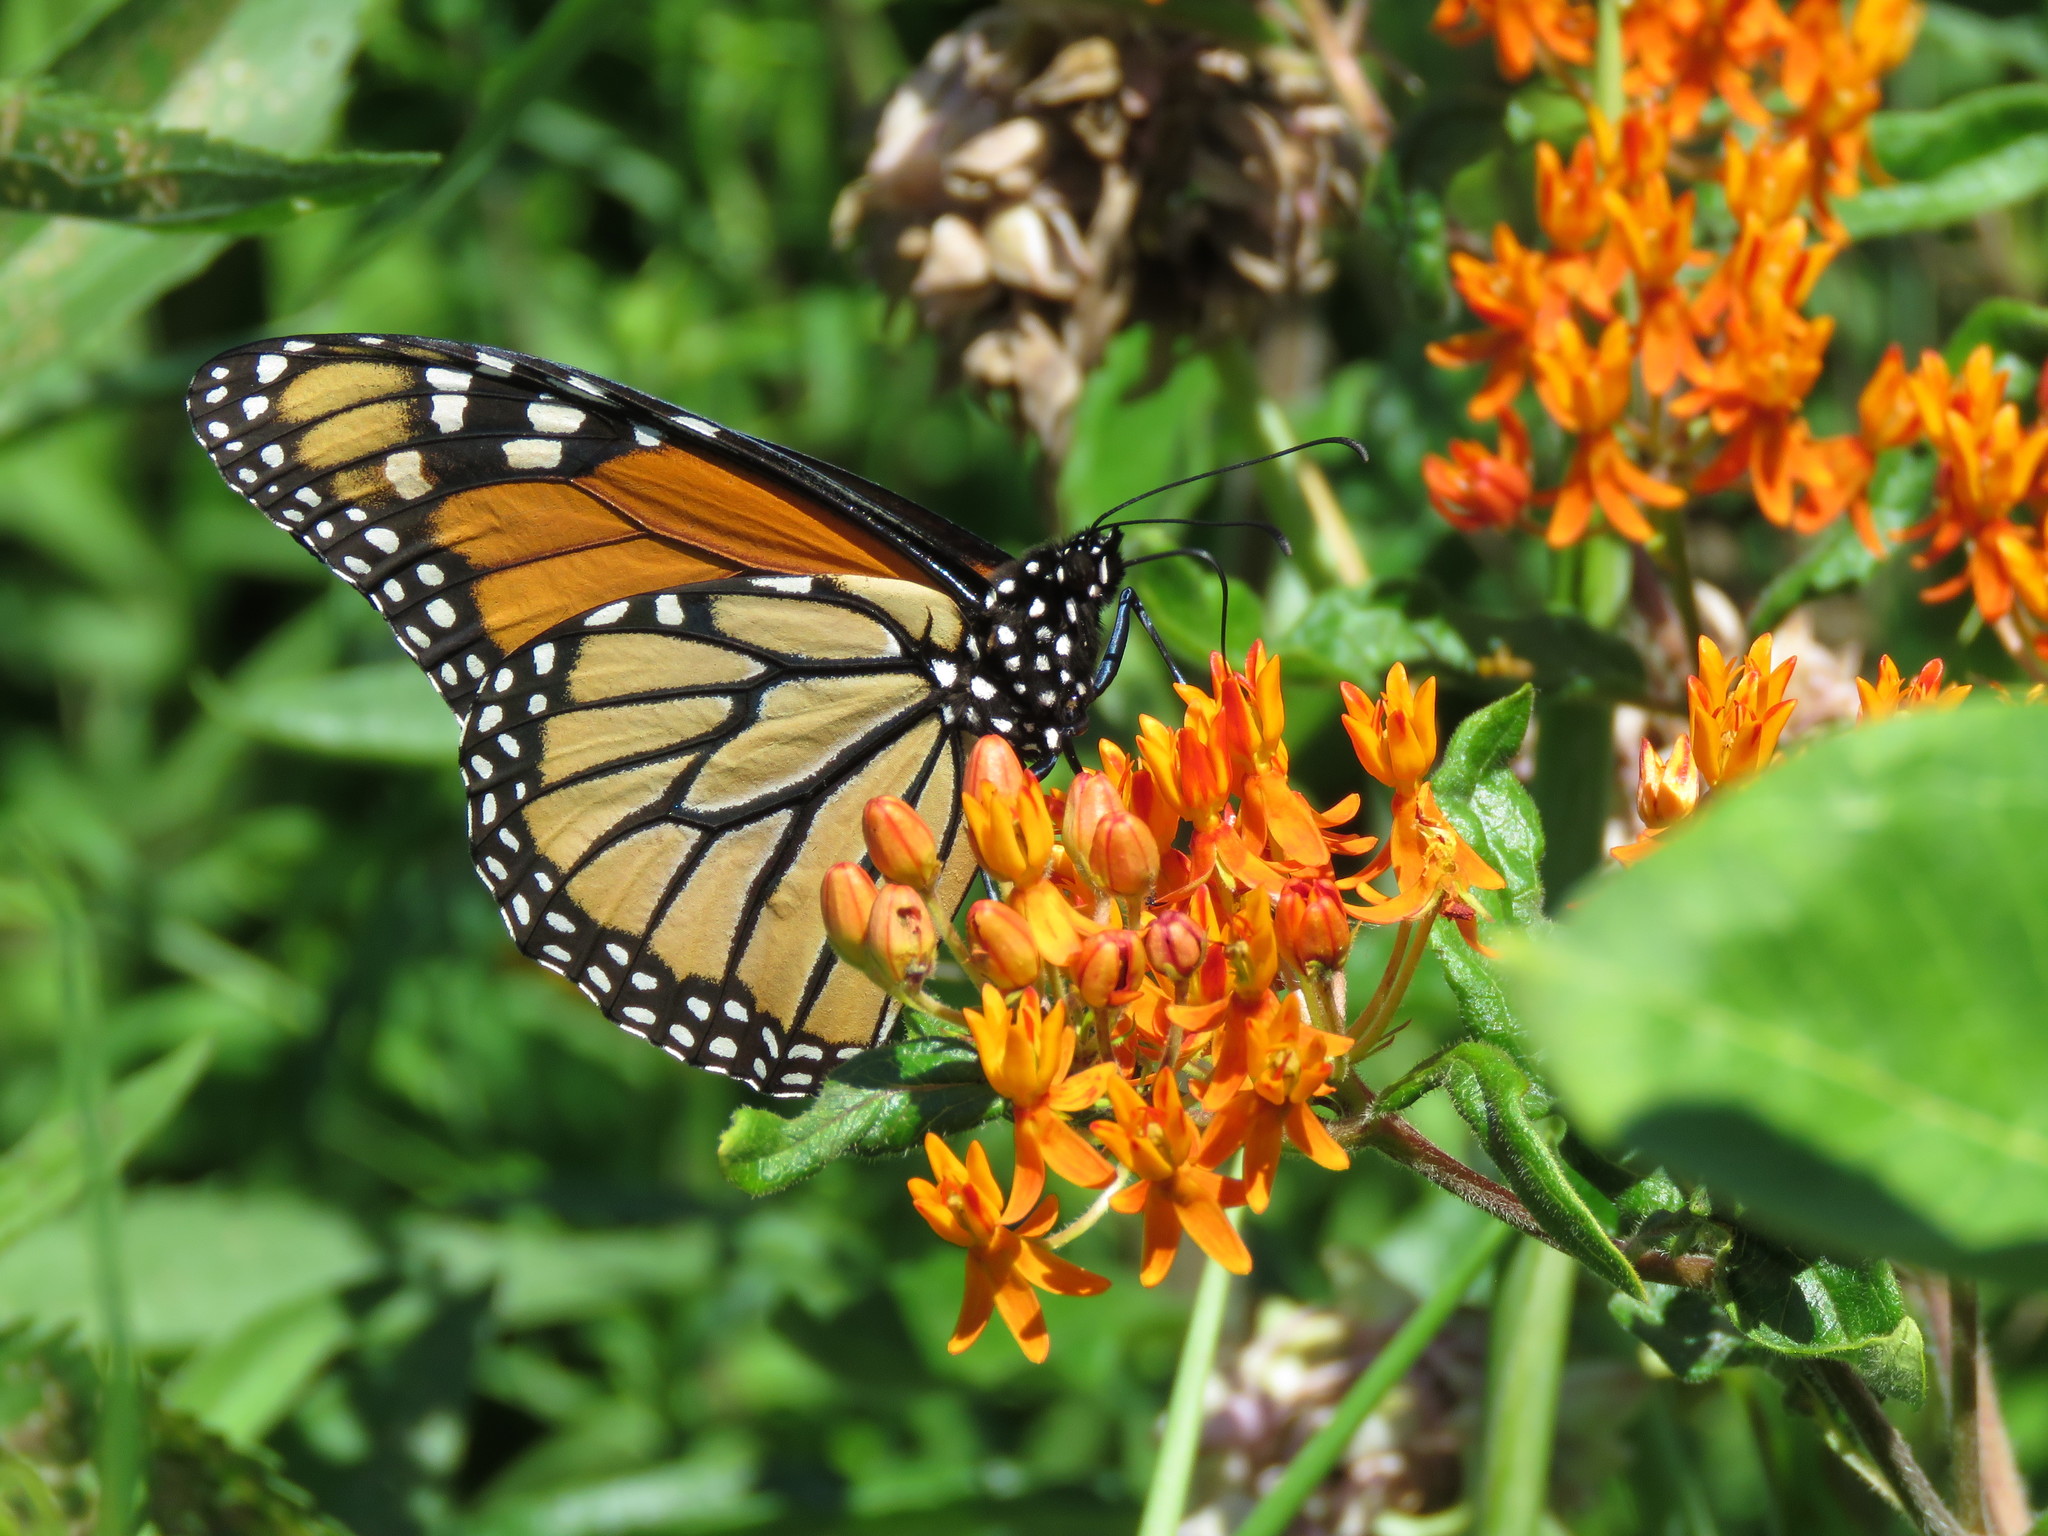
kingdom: Animalia
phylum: Arthropoda
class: Insecta
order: Lepidoptera
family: Nymphalidae
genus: Danaus
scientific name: Danaus plexippus
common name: Monarch
